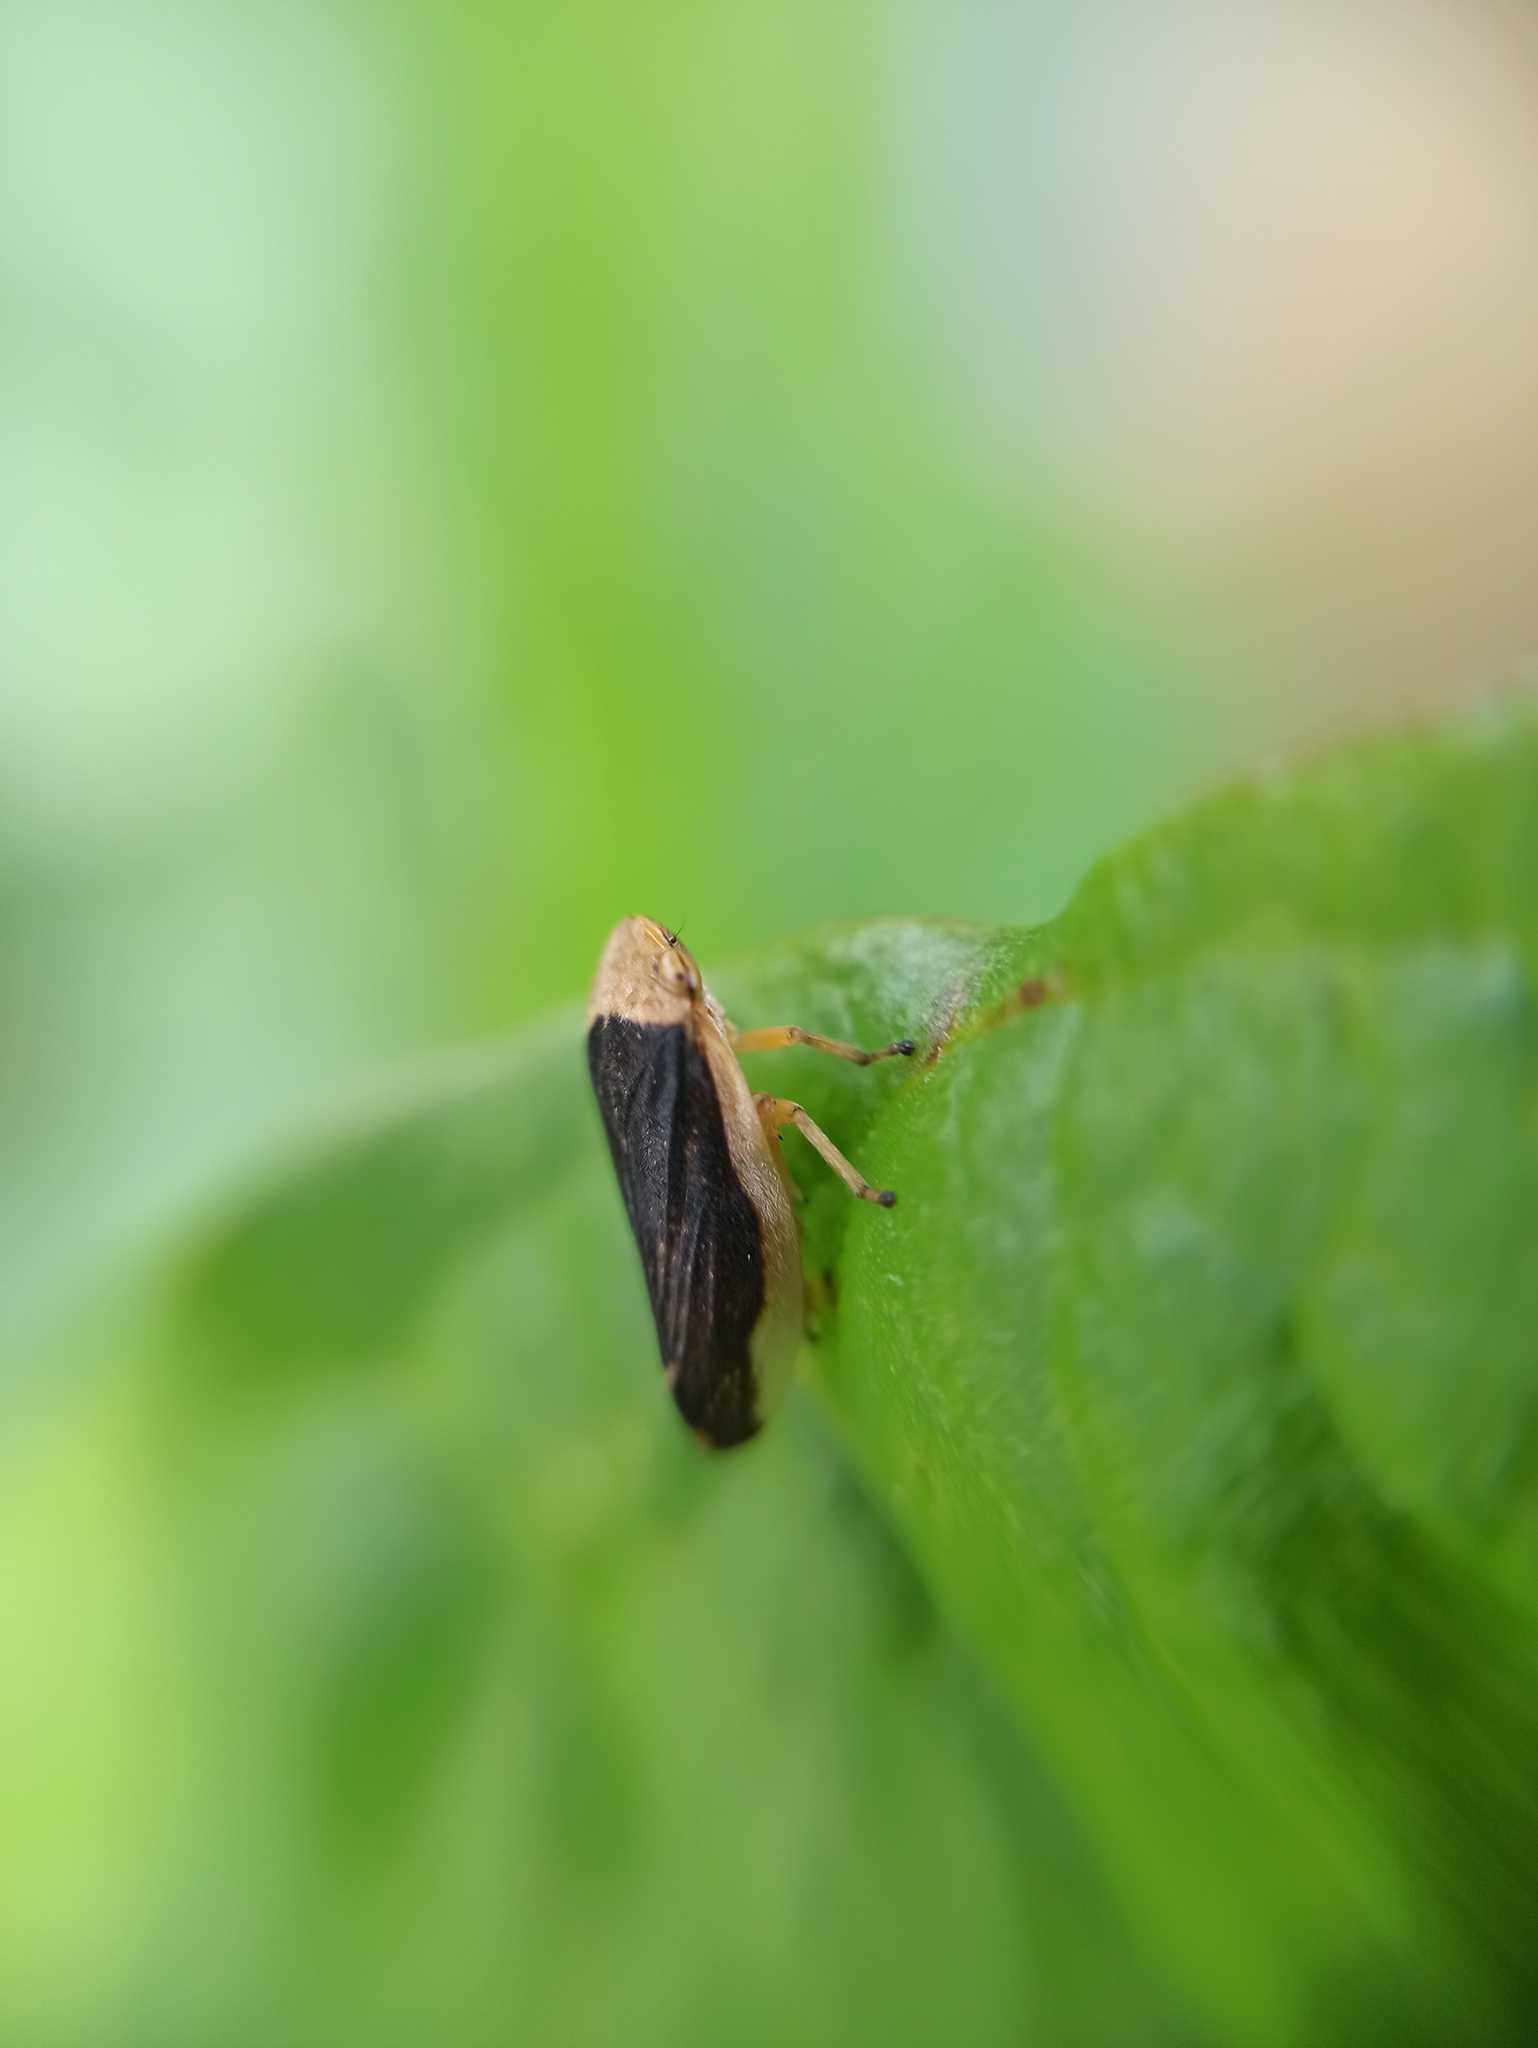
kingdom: Animalia
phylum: Arthropoda
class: Insecta
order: Hemiptera
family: Aphrophoridae
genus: Philaenus
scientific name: Philaenus spumarius
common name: Meadow spittlebug
